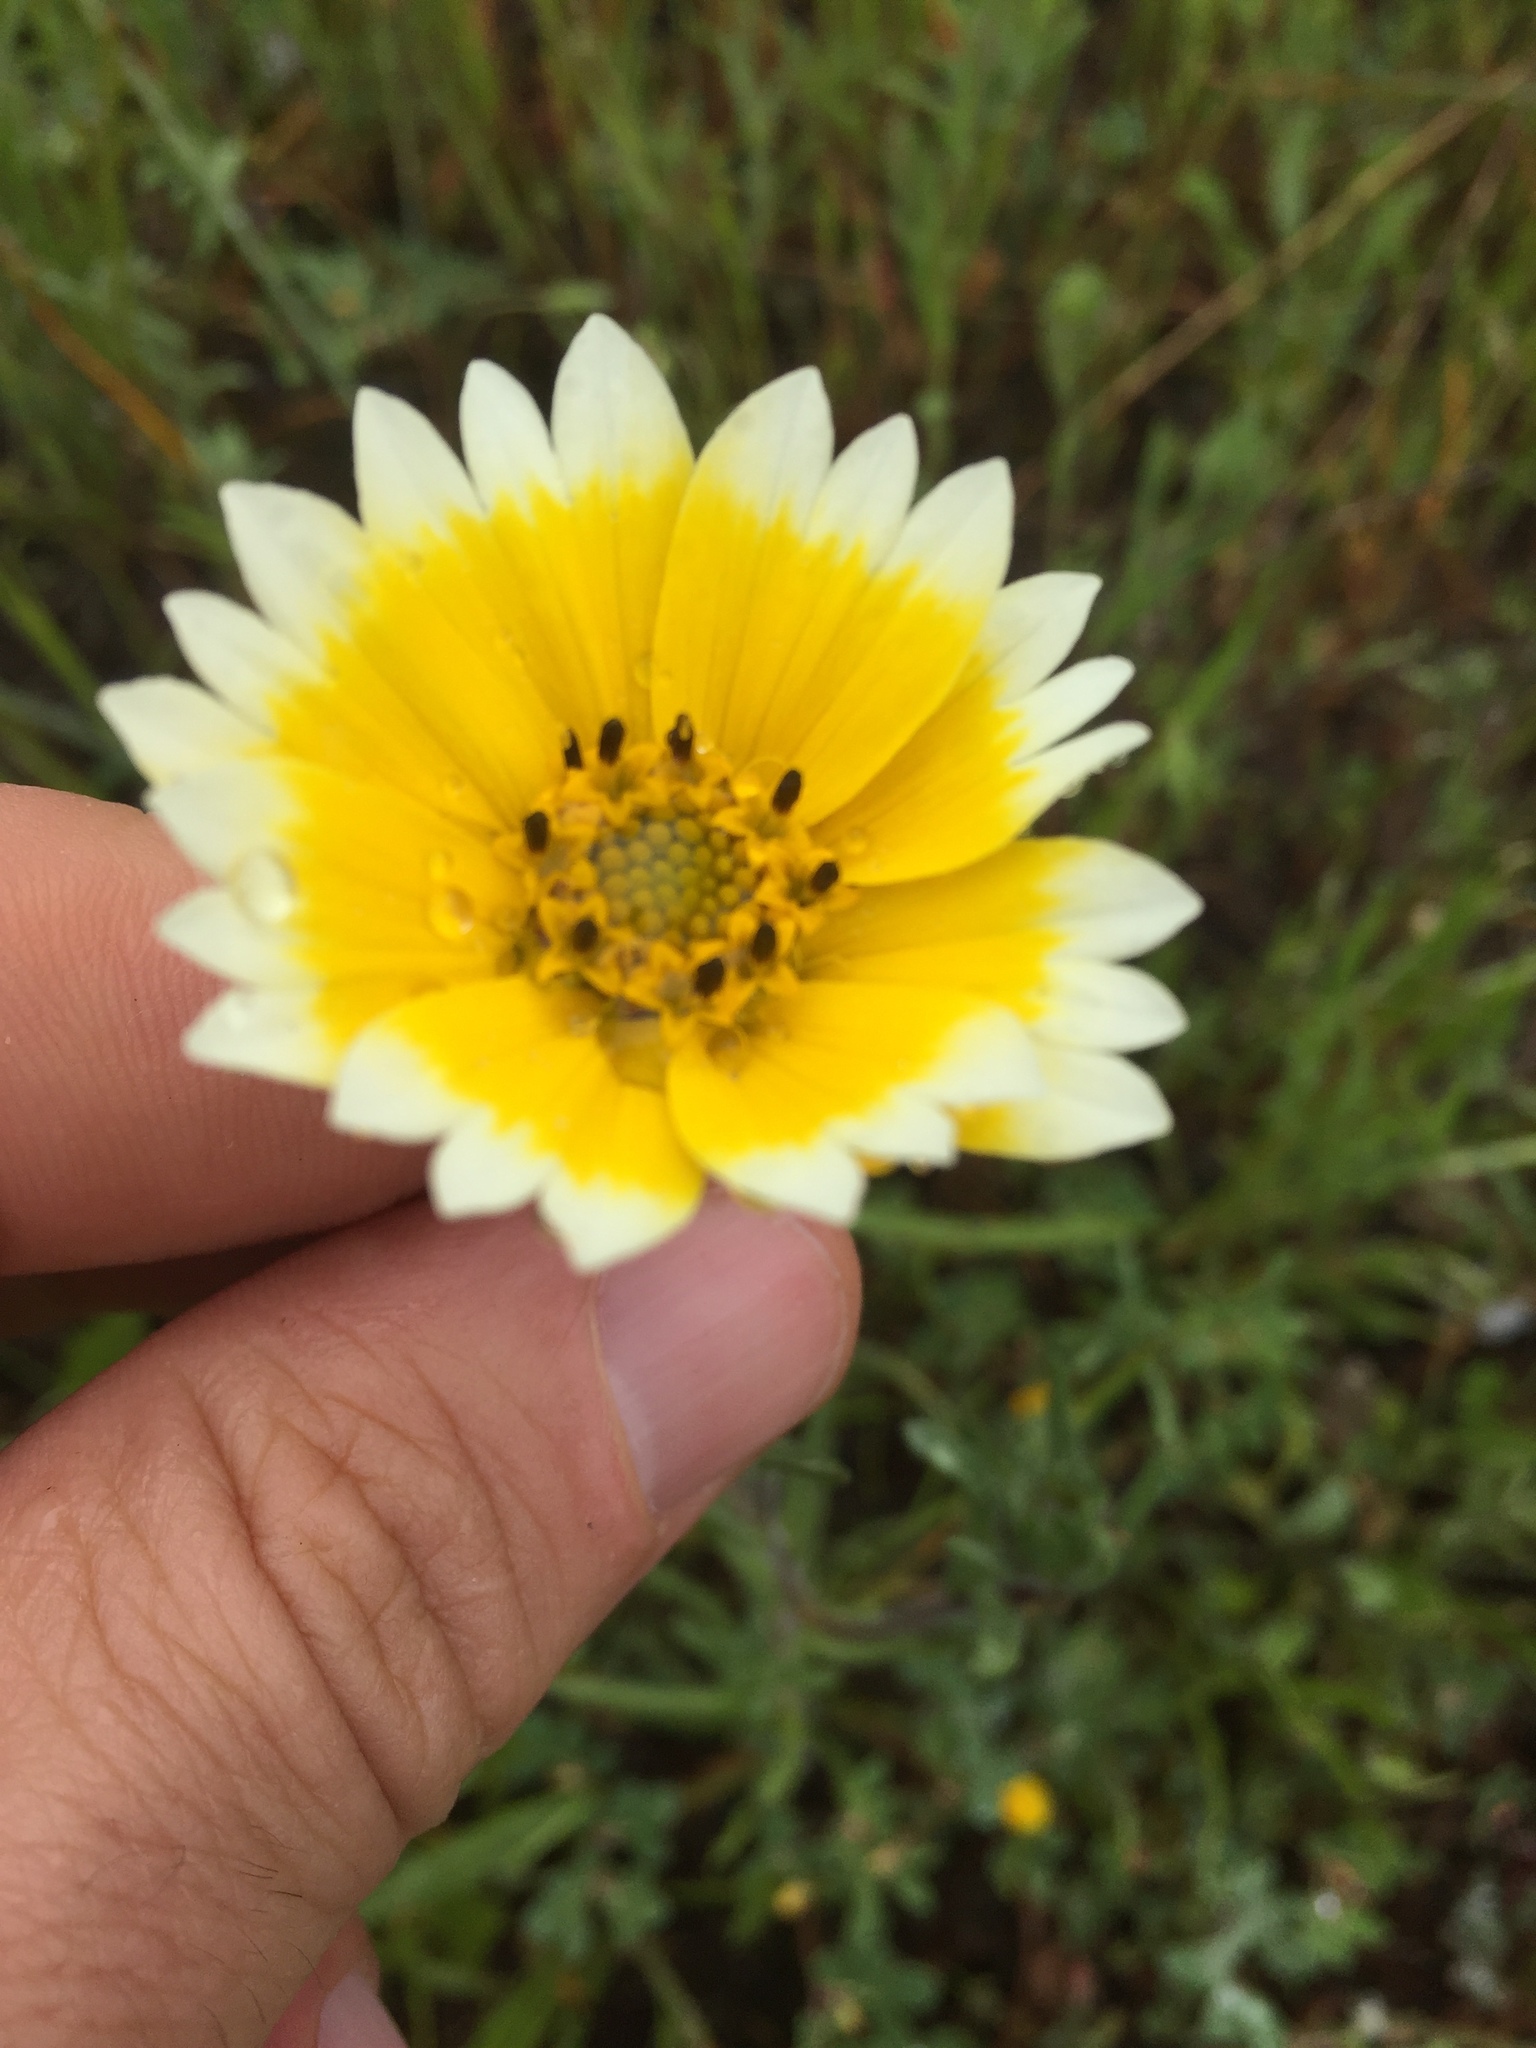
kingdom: Plantae
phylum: Tracheophyta
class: Magnoliopsida
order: Asterales
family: Asteraceae
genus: Layia
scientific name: Layia platyglossa
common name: Tidy-tips
